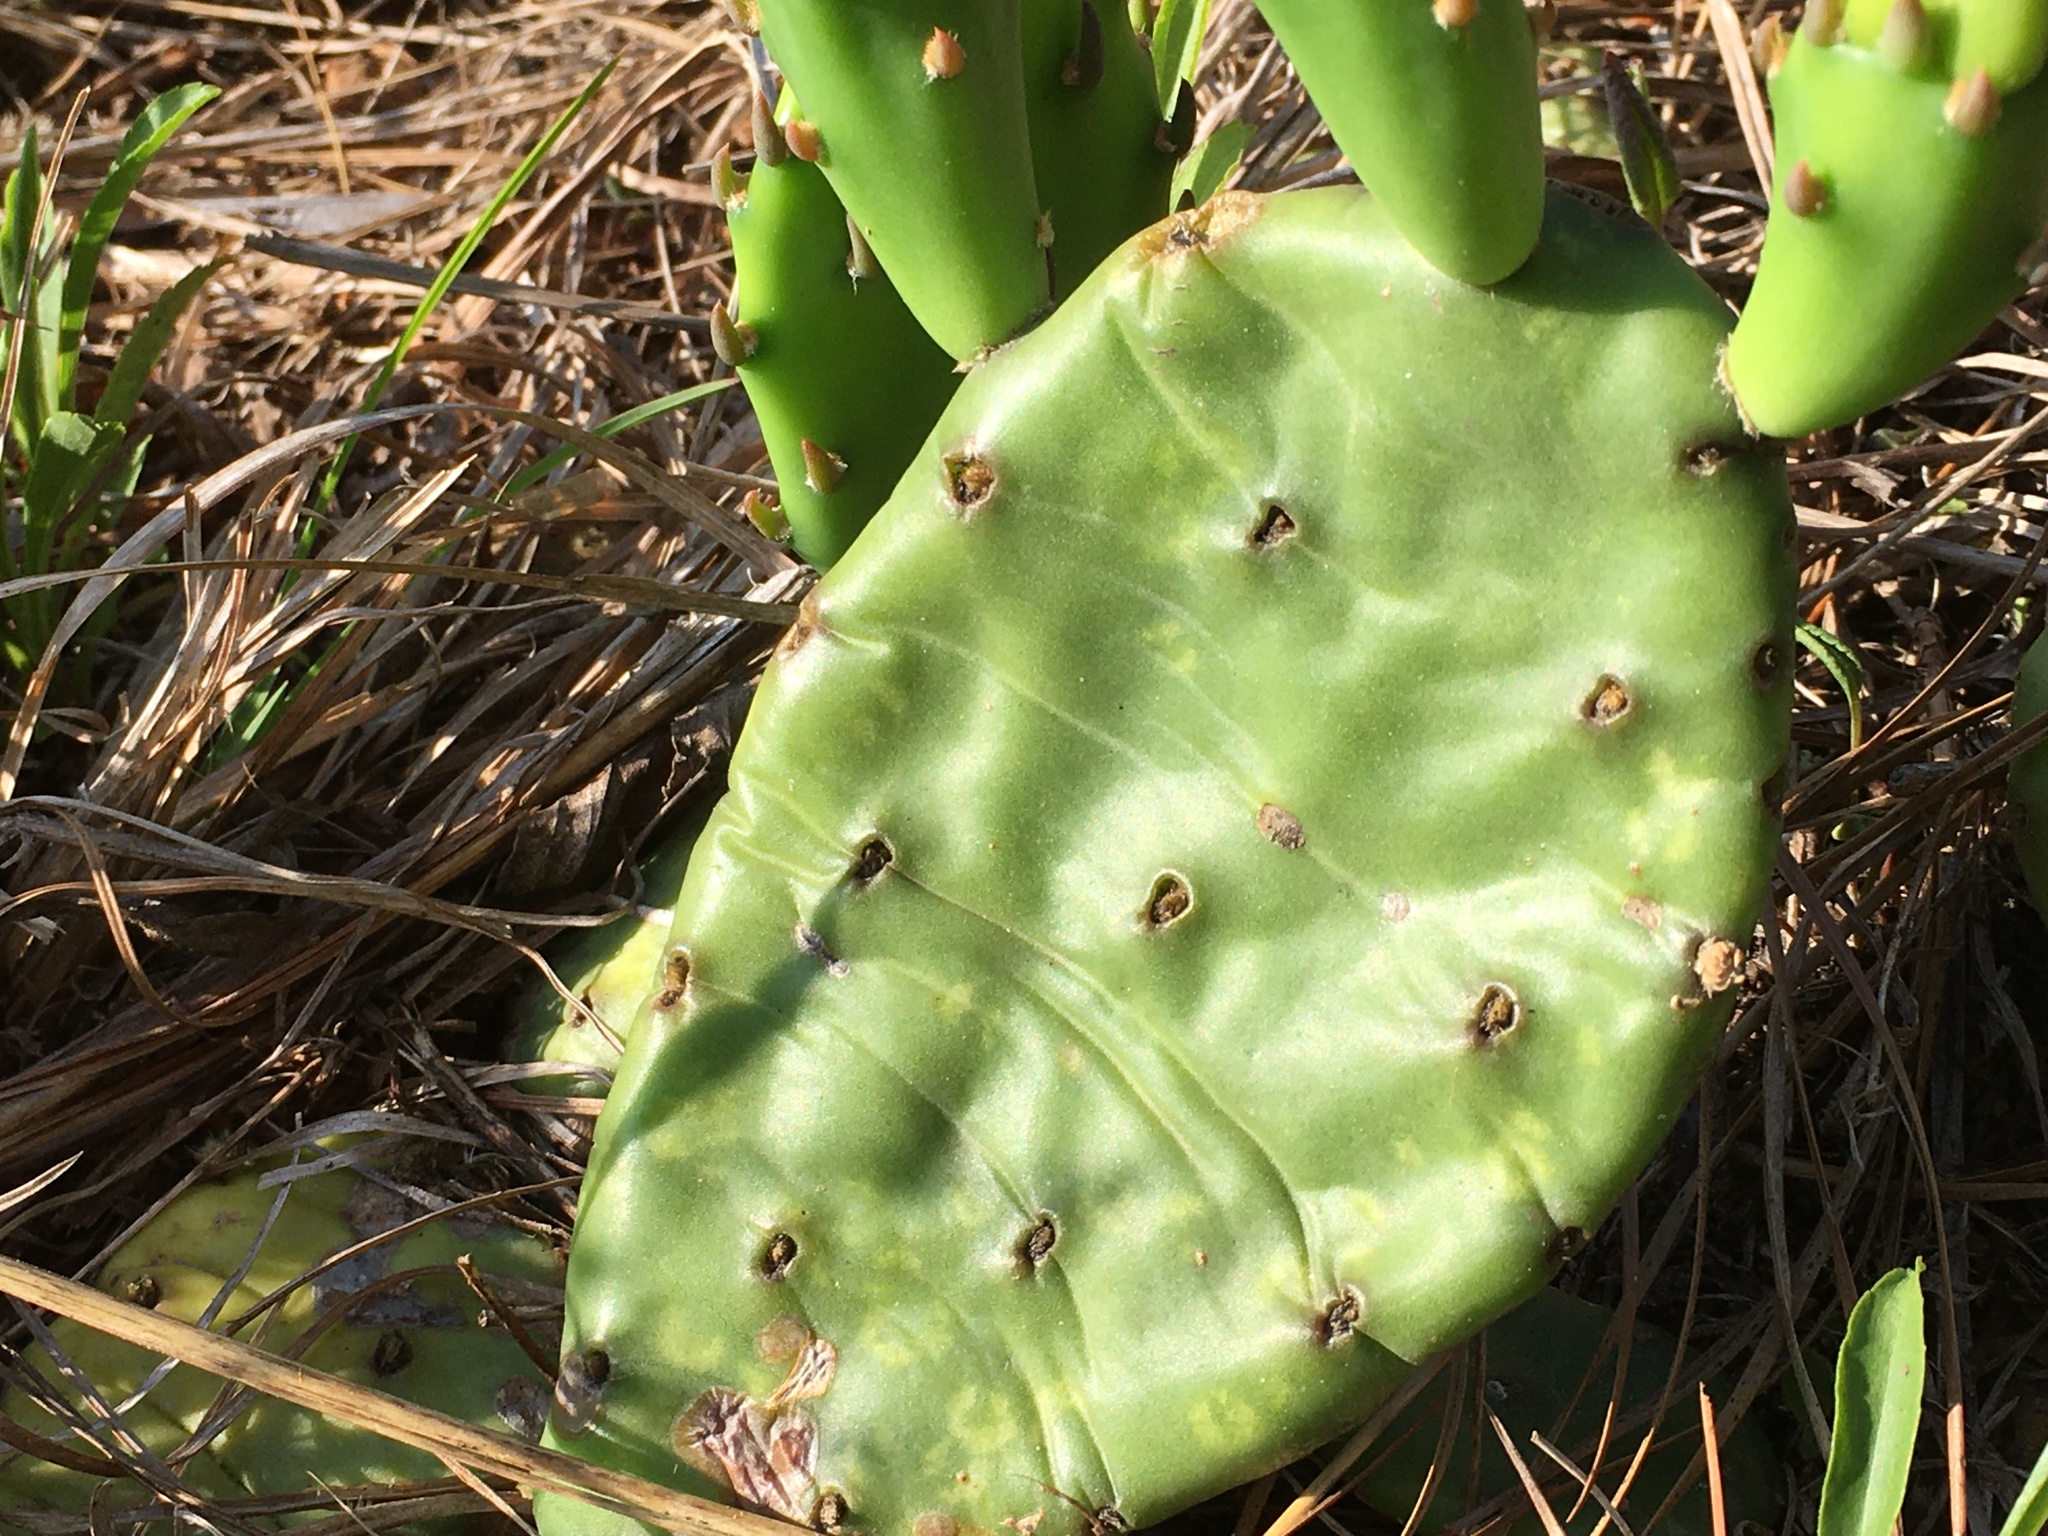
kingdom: Plantae
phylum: Tracheophyta
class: Magnoliopsida
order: Caryophyllales
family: Cactaceae
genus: Opuntia
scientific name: Opuntia mesacantha
